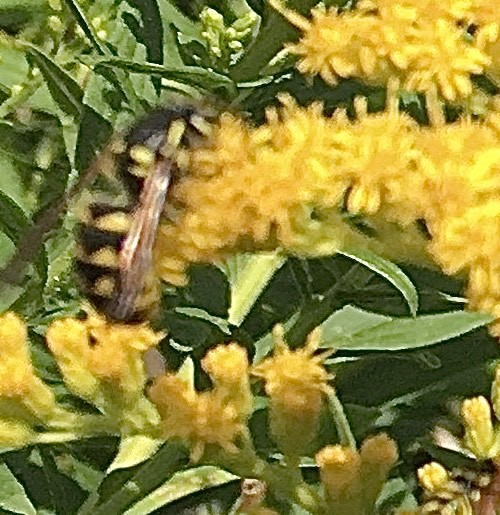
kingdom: Animalia
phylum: Arthropoda
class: Insecta
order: Hymenoptera
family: Vespidae
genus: Dolichovespula
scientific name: Dolichovespula arenaria
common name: Aerial yellowjacket
